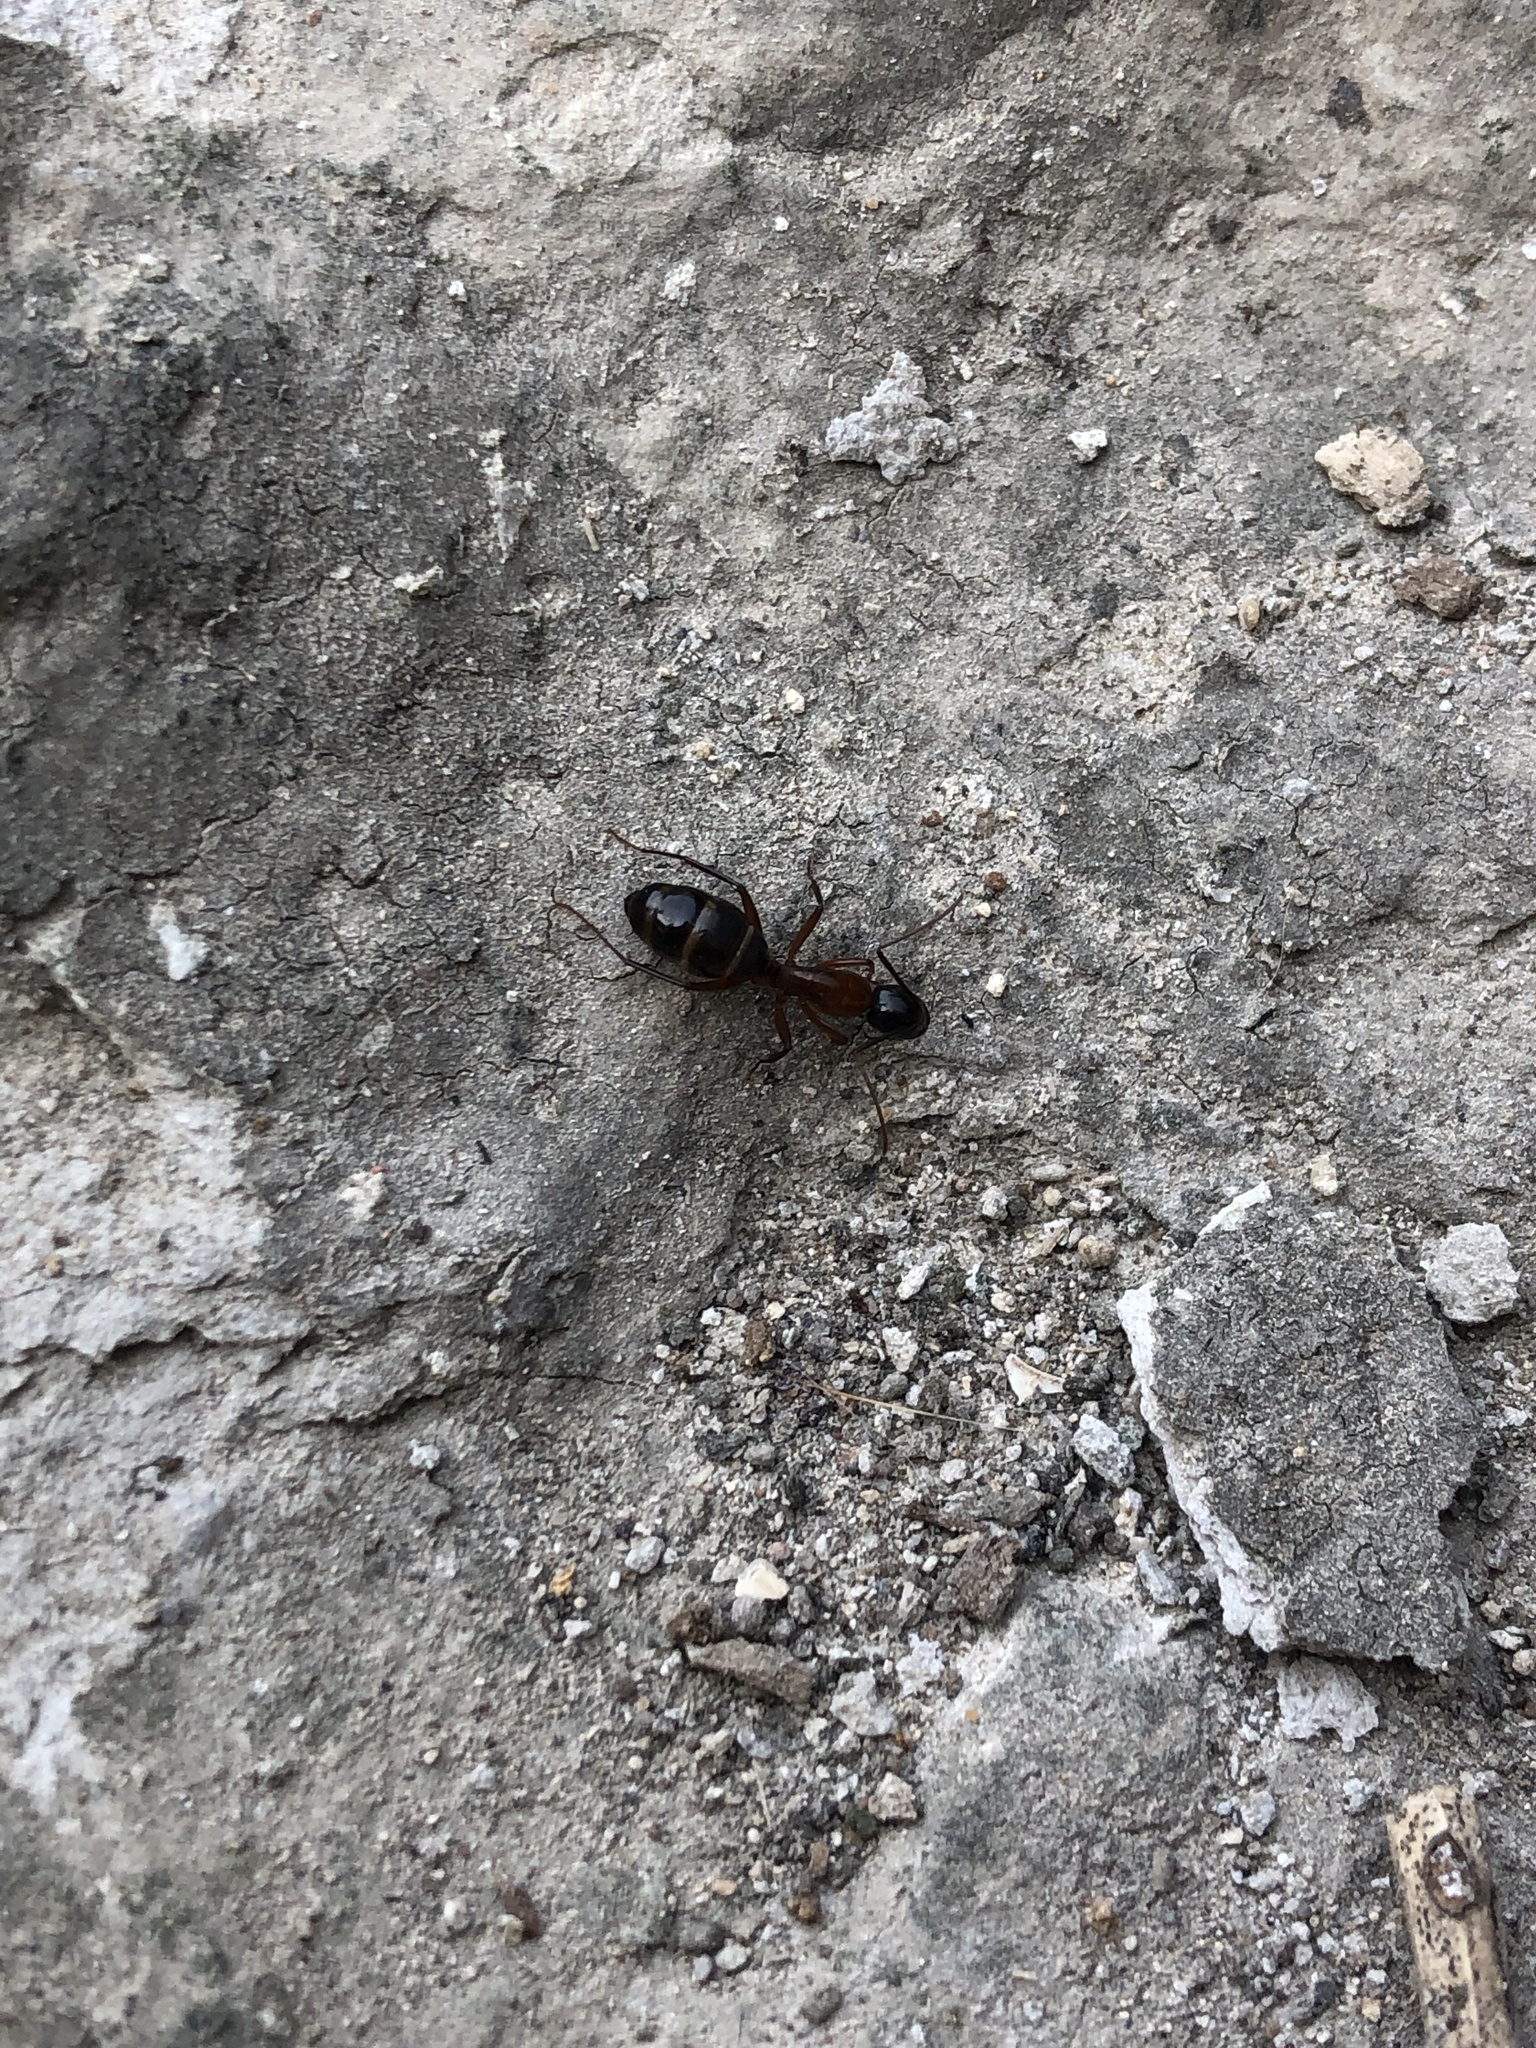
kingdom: Animalia
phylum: Arthropoda
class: Insecta
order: Hymenoptera
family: Formicidae
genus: Camponotus
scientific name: Camponotus texanus
